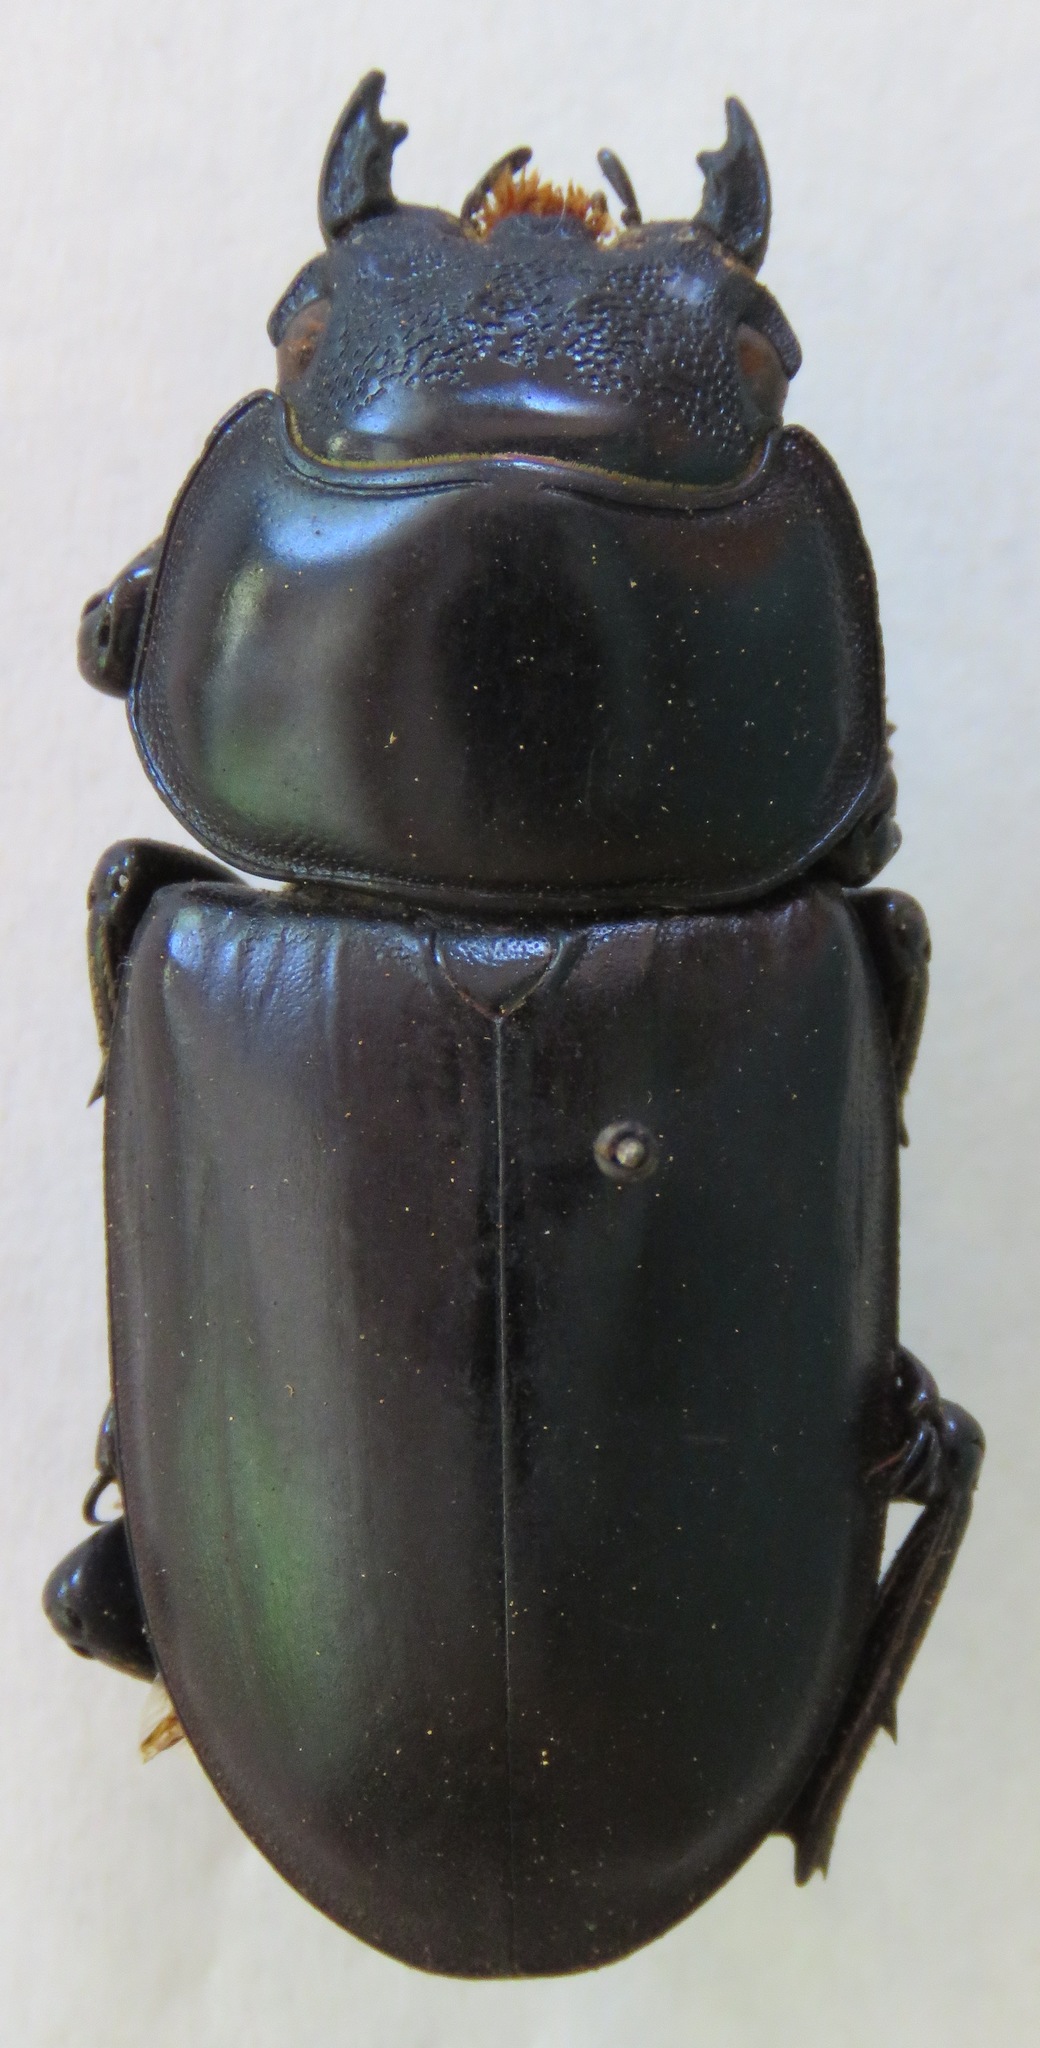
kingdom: Animalia
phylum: Arthropoda
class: Insecta
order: Coleoptera
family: Lucanidae
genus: Dorcus
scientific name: Dorcus antaeus
